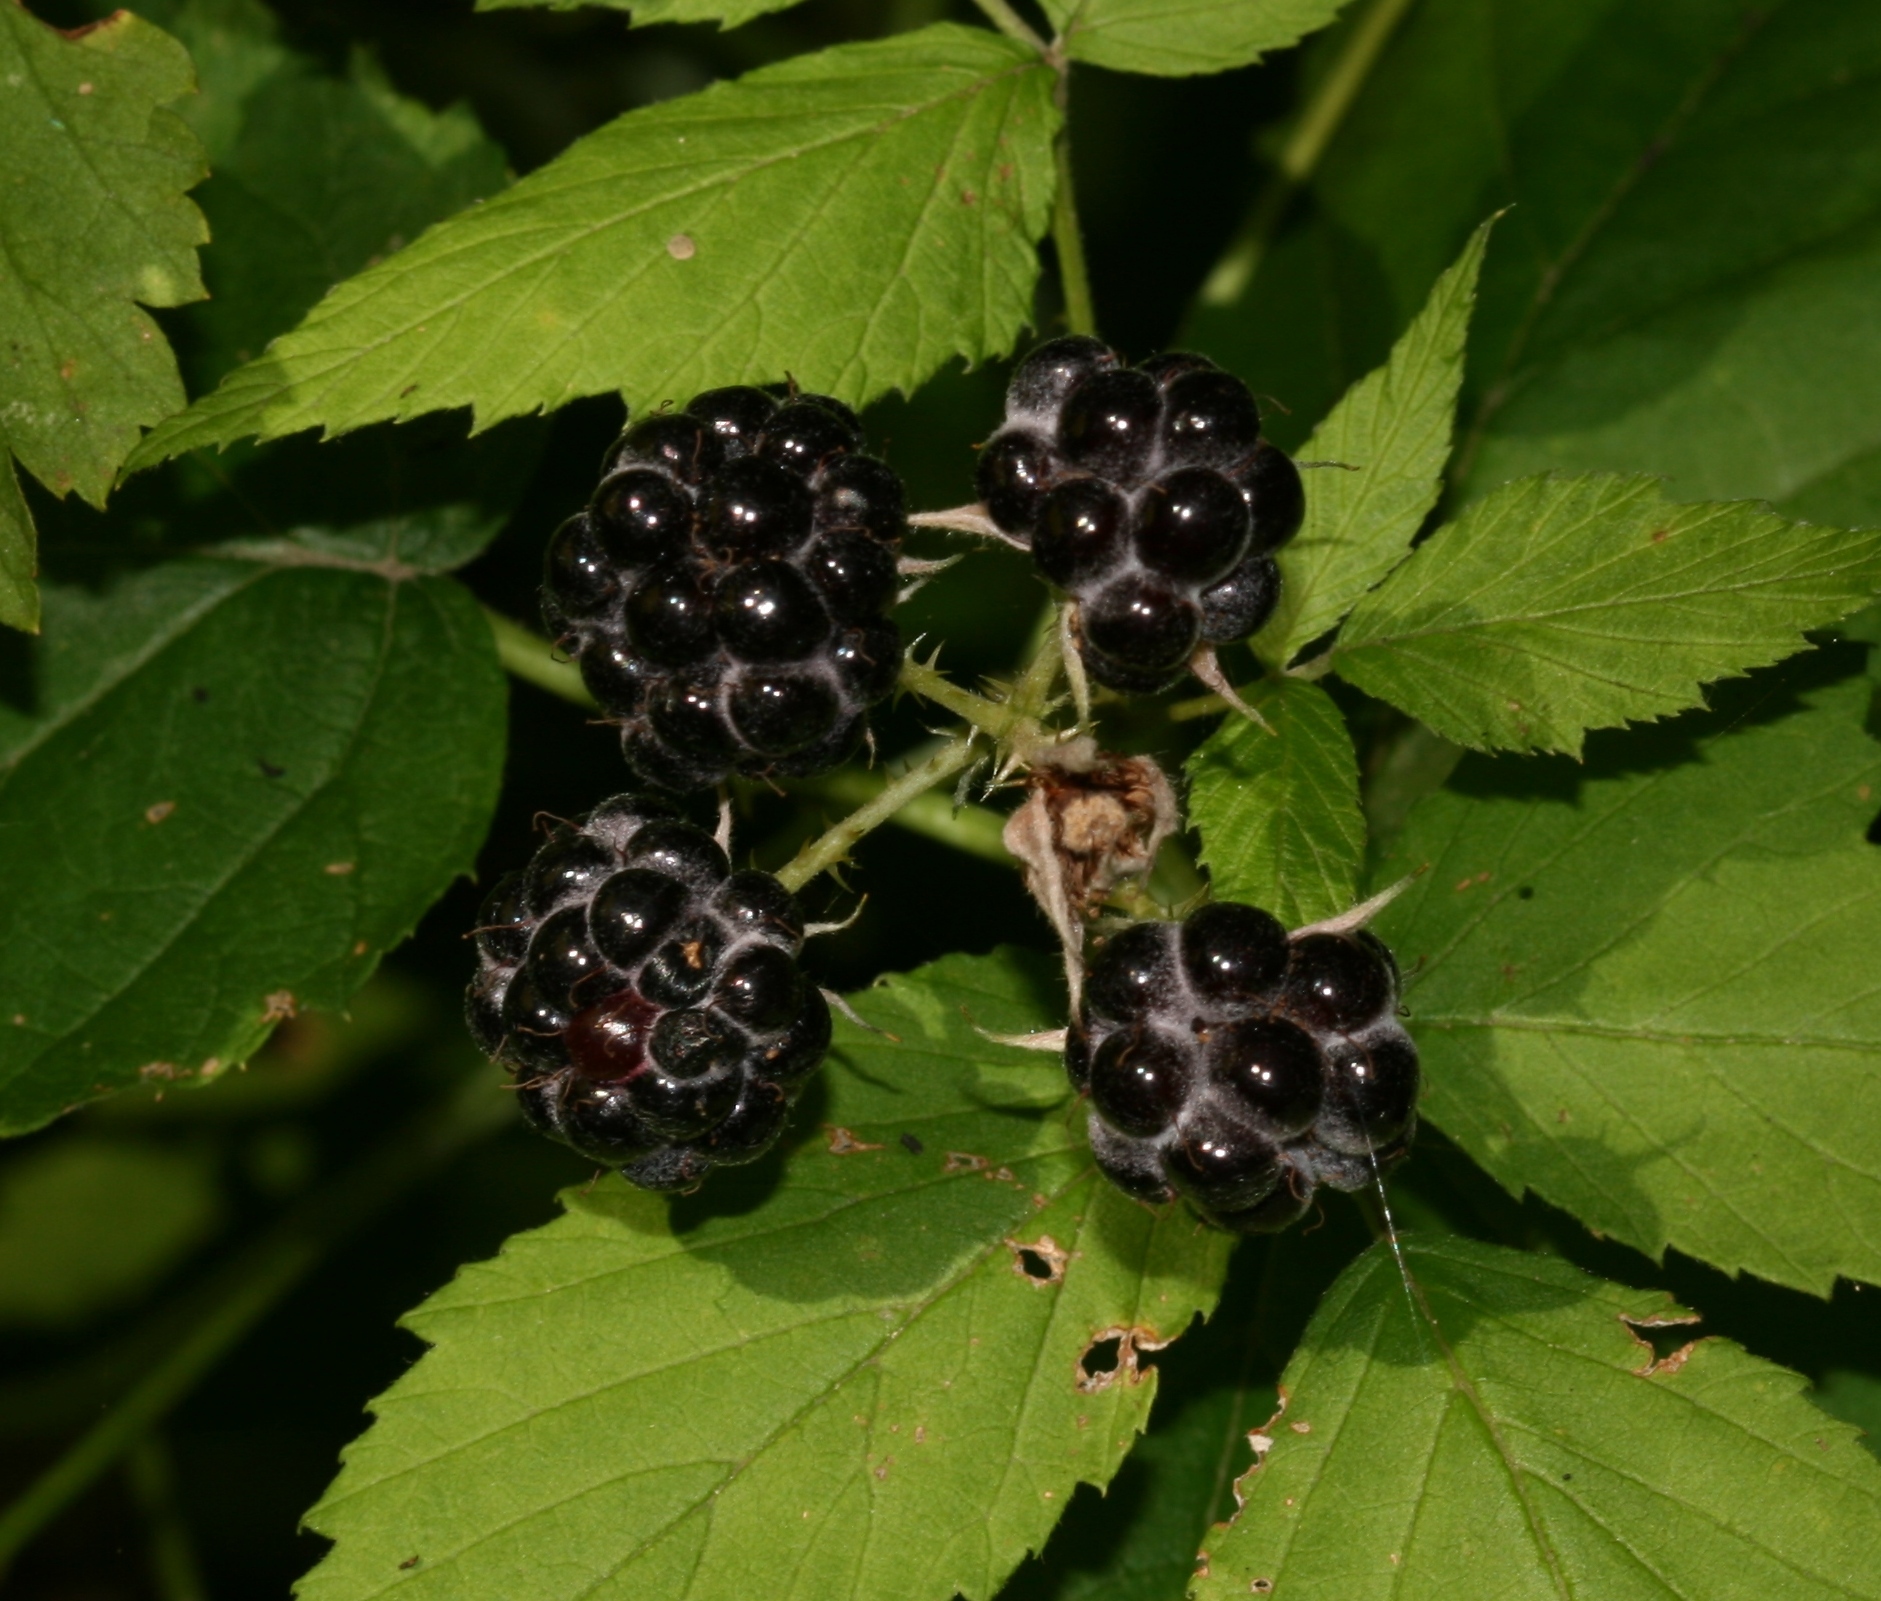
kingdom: Plantae
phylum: Tracheophyta
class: Magnoliopsida
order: Rosales
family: Rosaceae
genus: Rubus
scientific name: Rubus occidentalis
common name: Black raspberry
